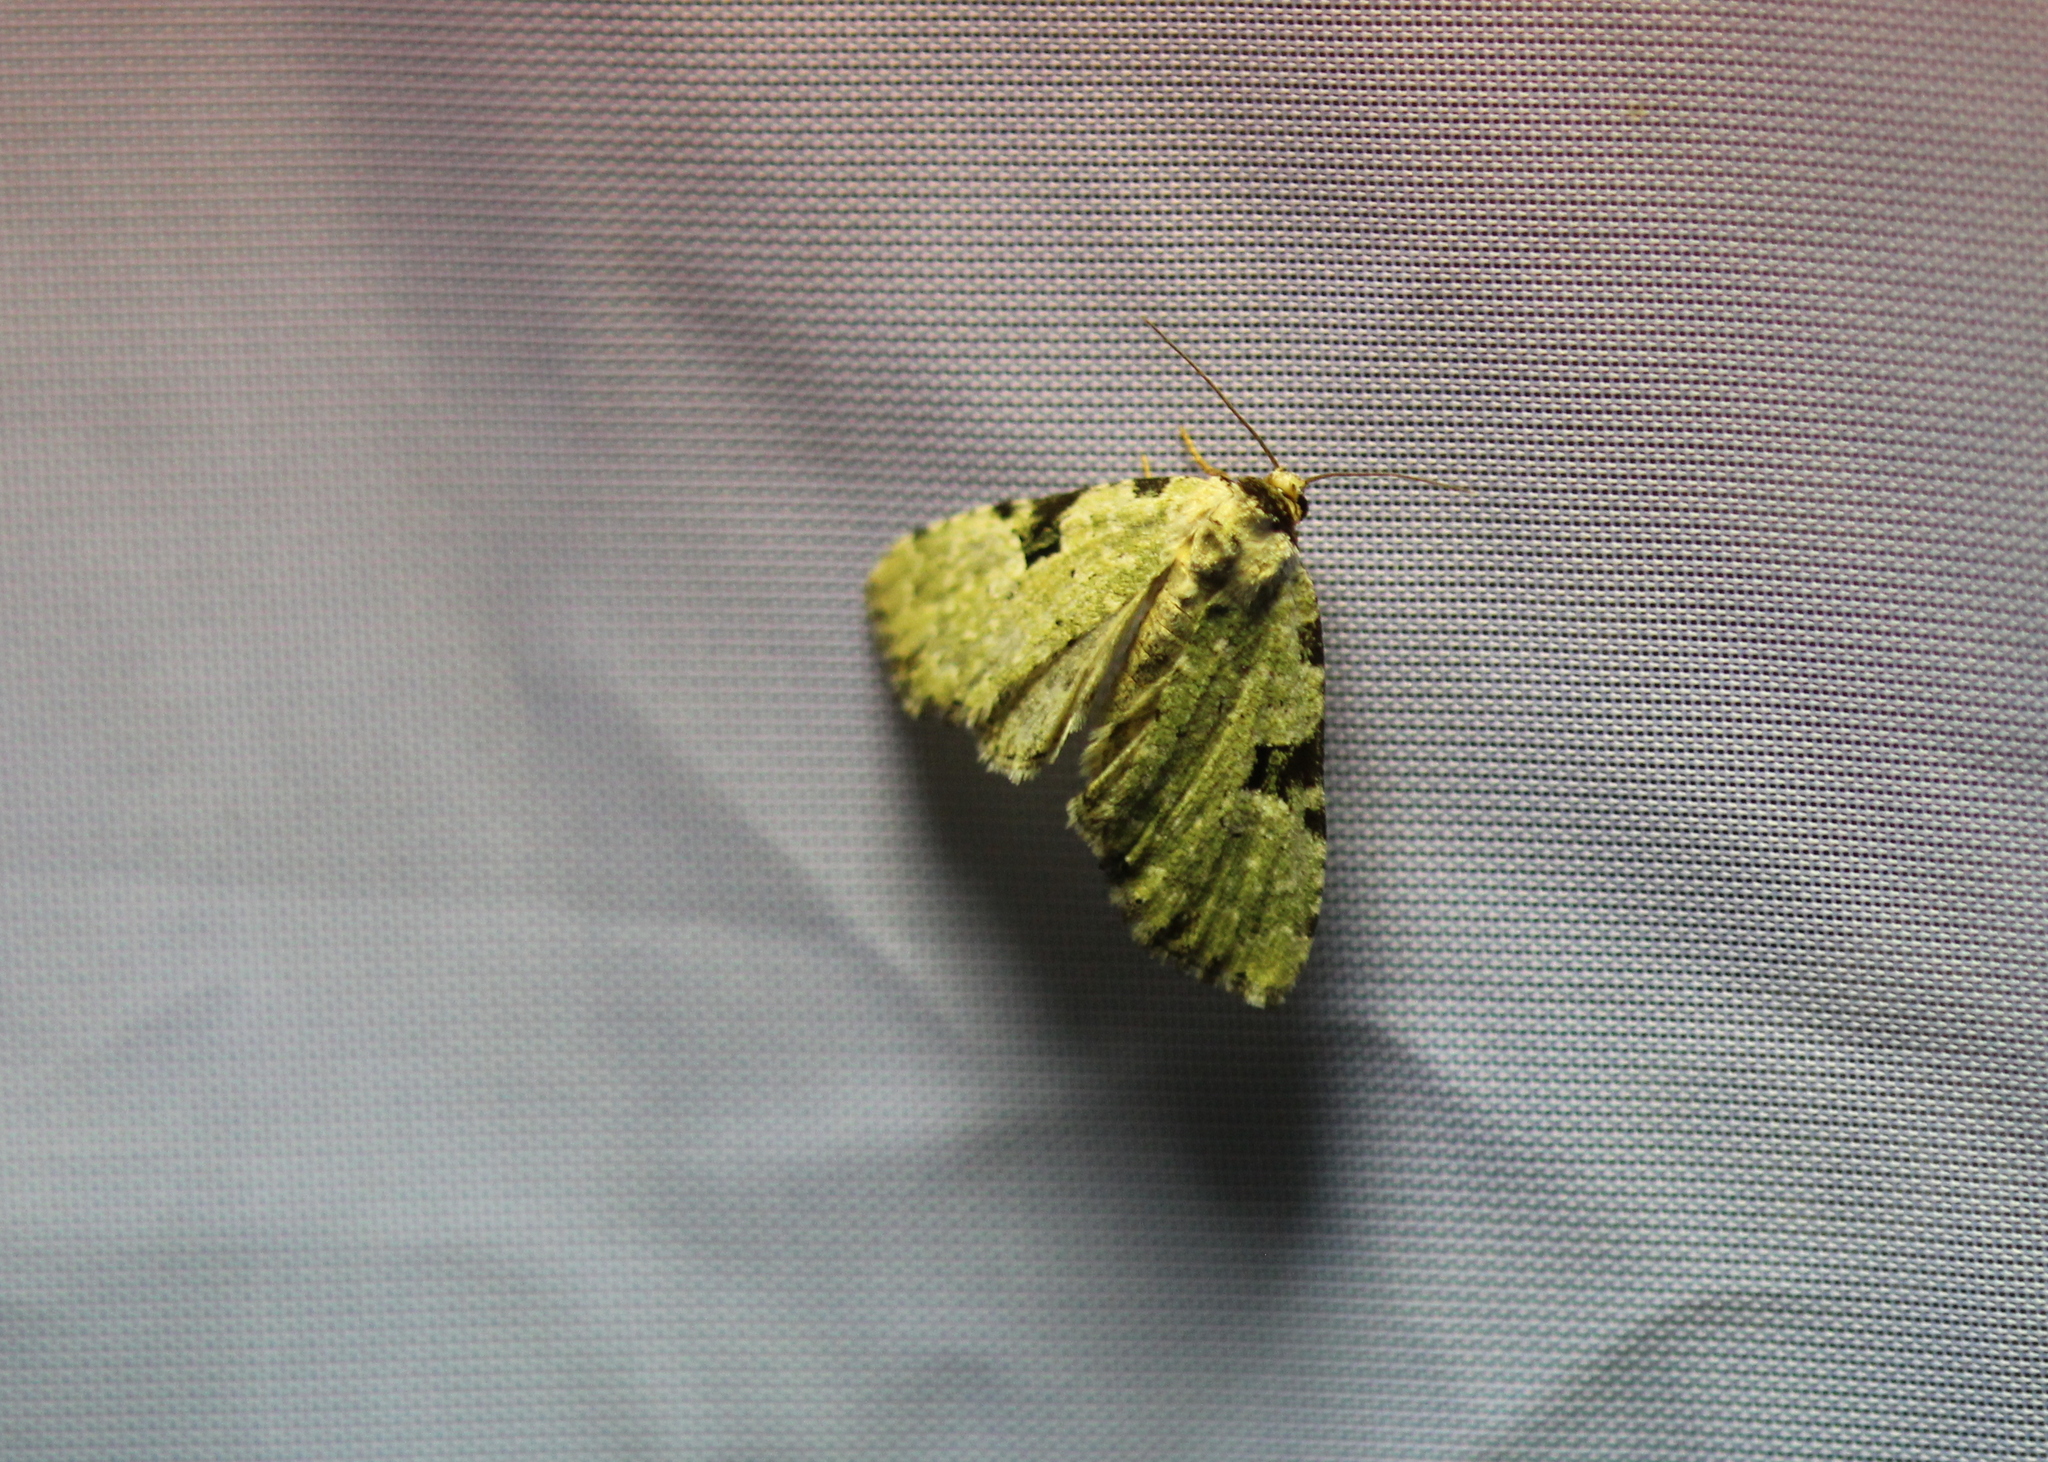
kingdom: Animalia
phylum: Arthropoda
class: Insecta
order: Lepidoptera
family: Noctuidae
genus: Leuconycta
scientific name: Leuconycta diphteroides
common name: Green leuconycta moth
